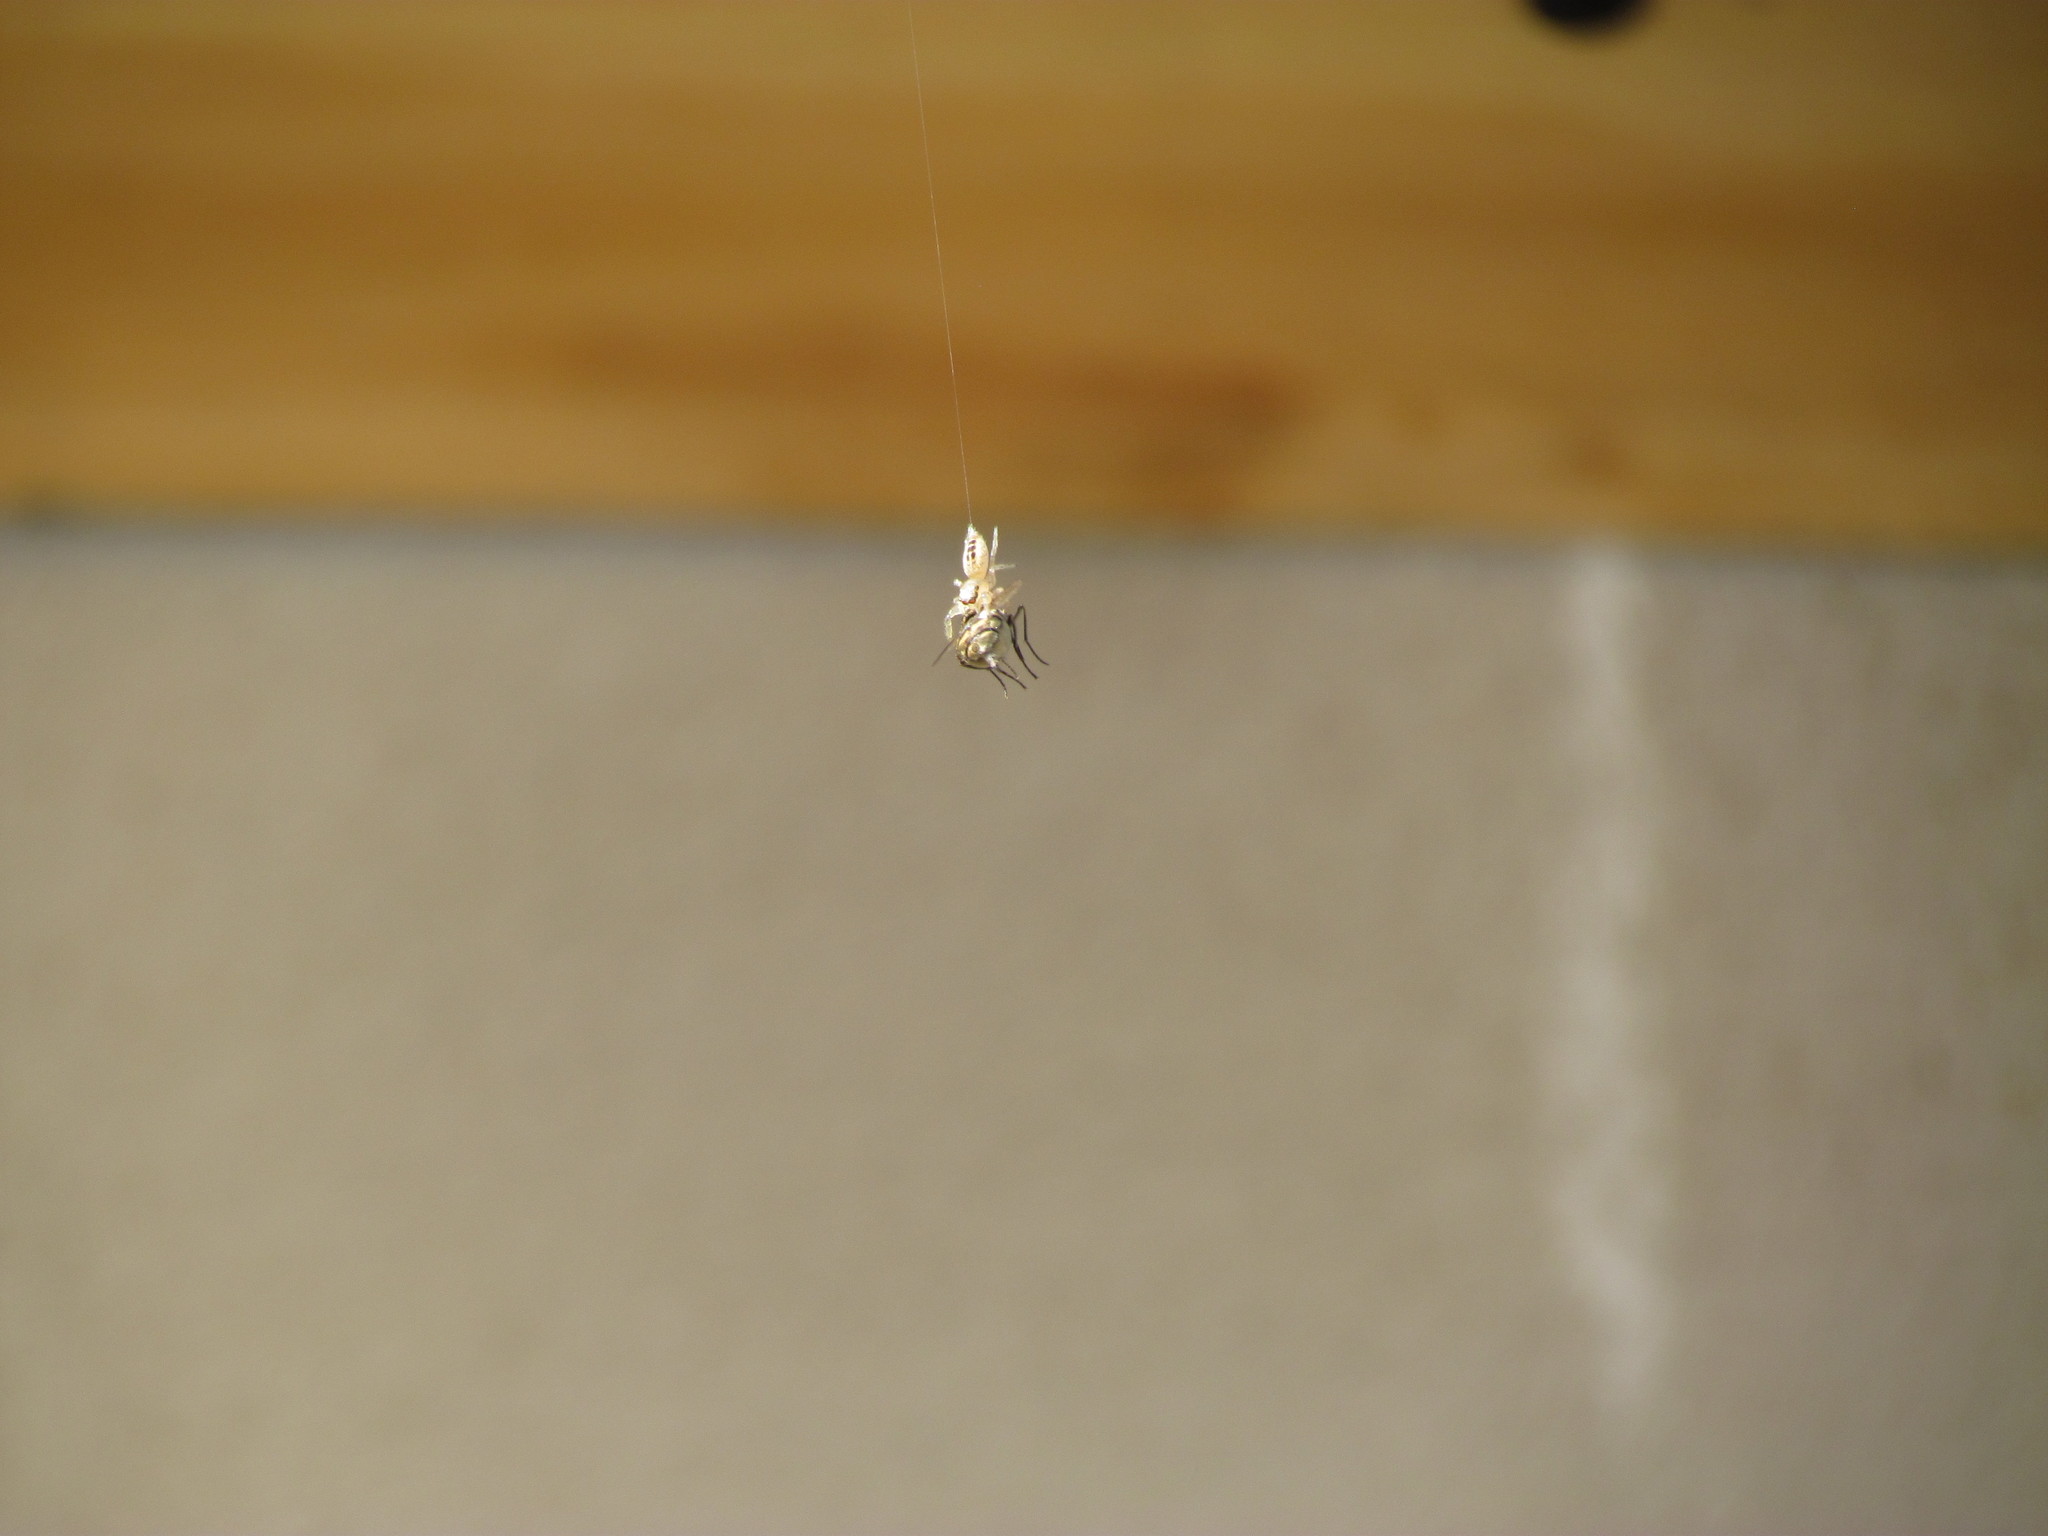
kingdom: Animalia
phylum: Arthropoda
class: Arachnida
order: Araneae
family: Salticidae
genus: Cotinusa
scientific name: Cotinusa vittata
